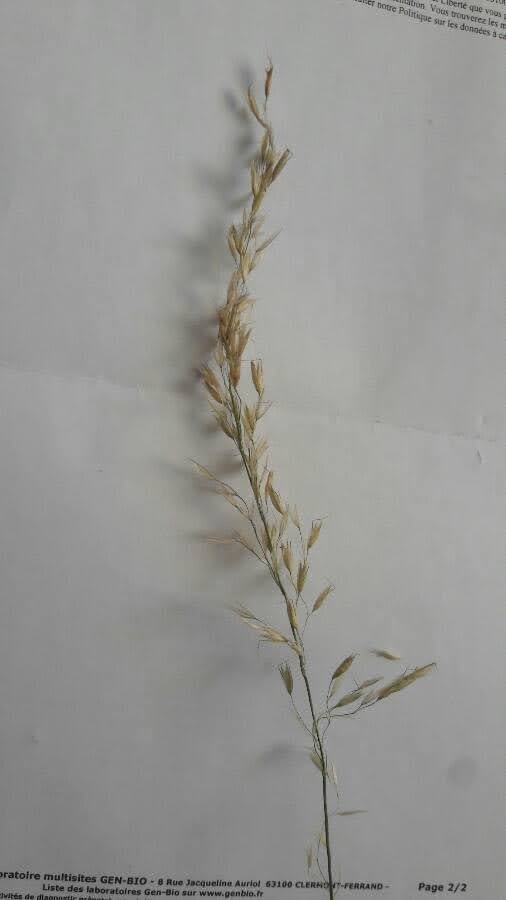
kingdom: Plantae
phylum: Tracheophyta
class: Liliopsida
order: Poales
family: Poaceae
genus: Arrhenatherum
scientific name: Arrhenatherum elatius
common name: Tall oatgrass
